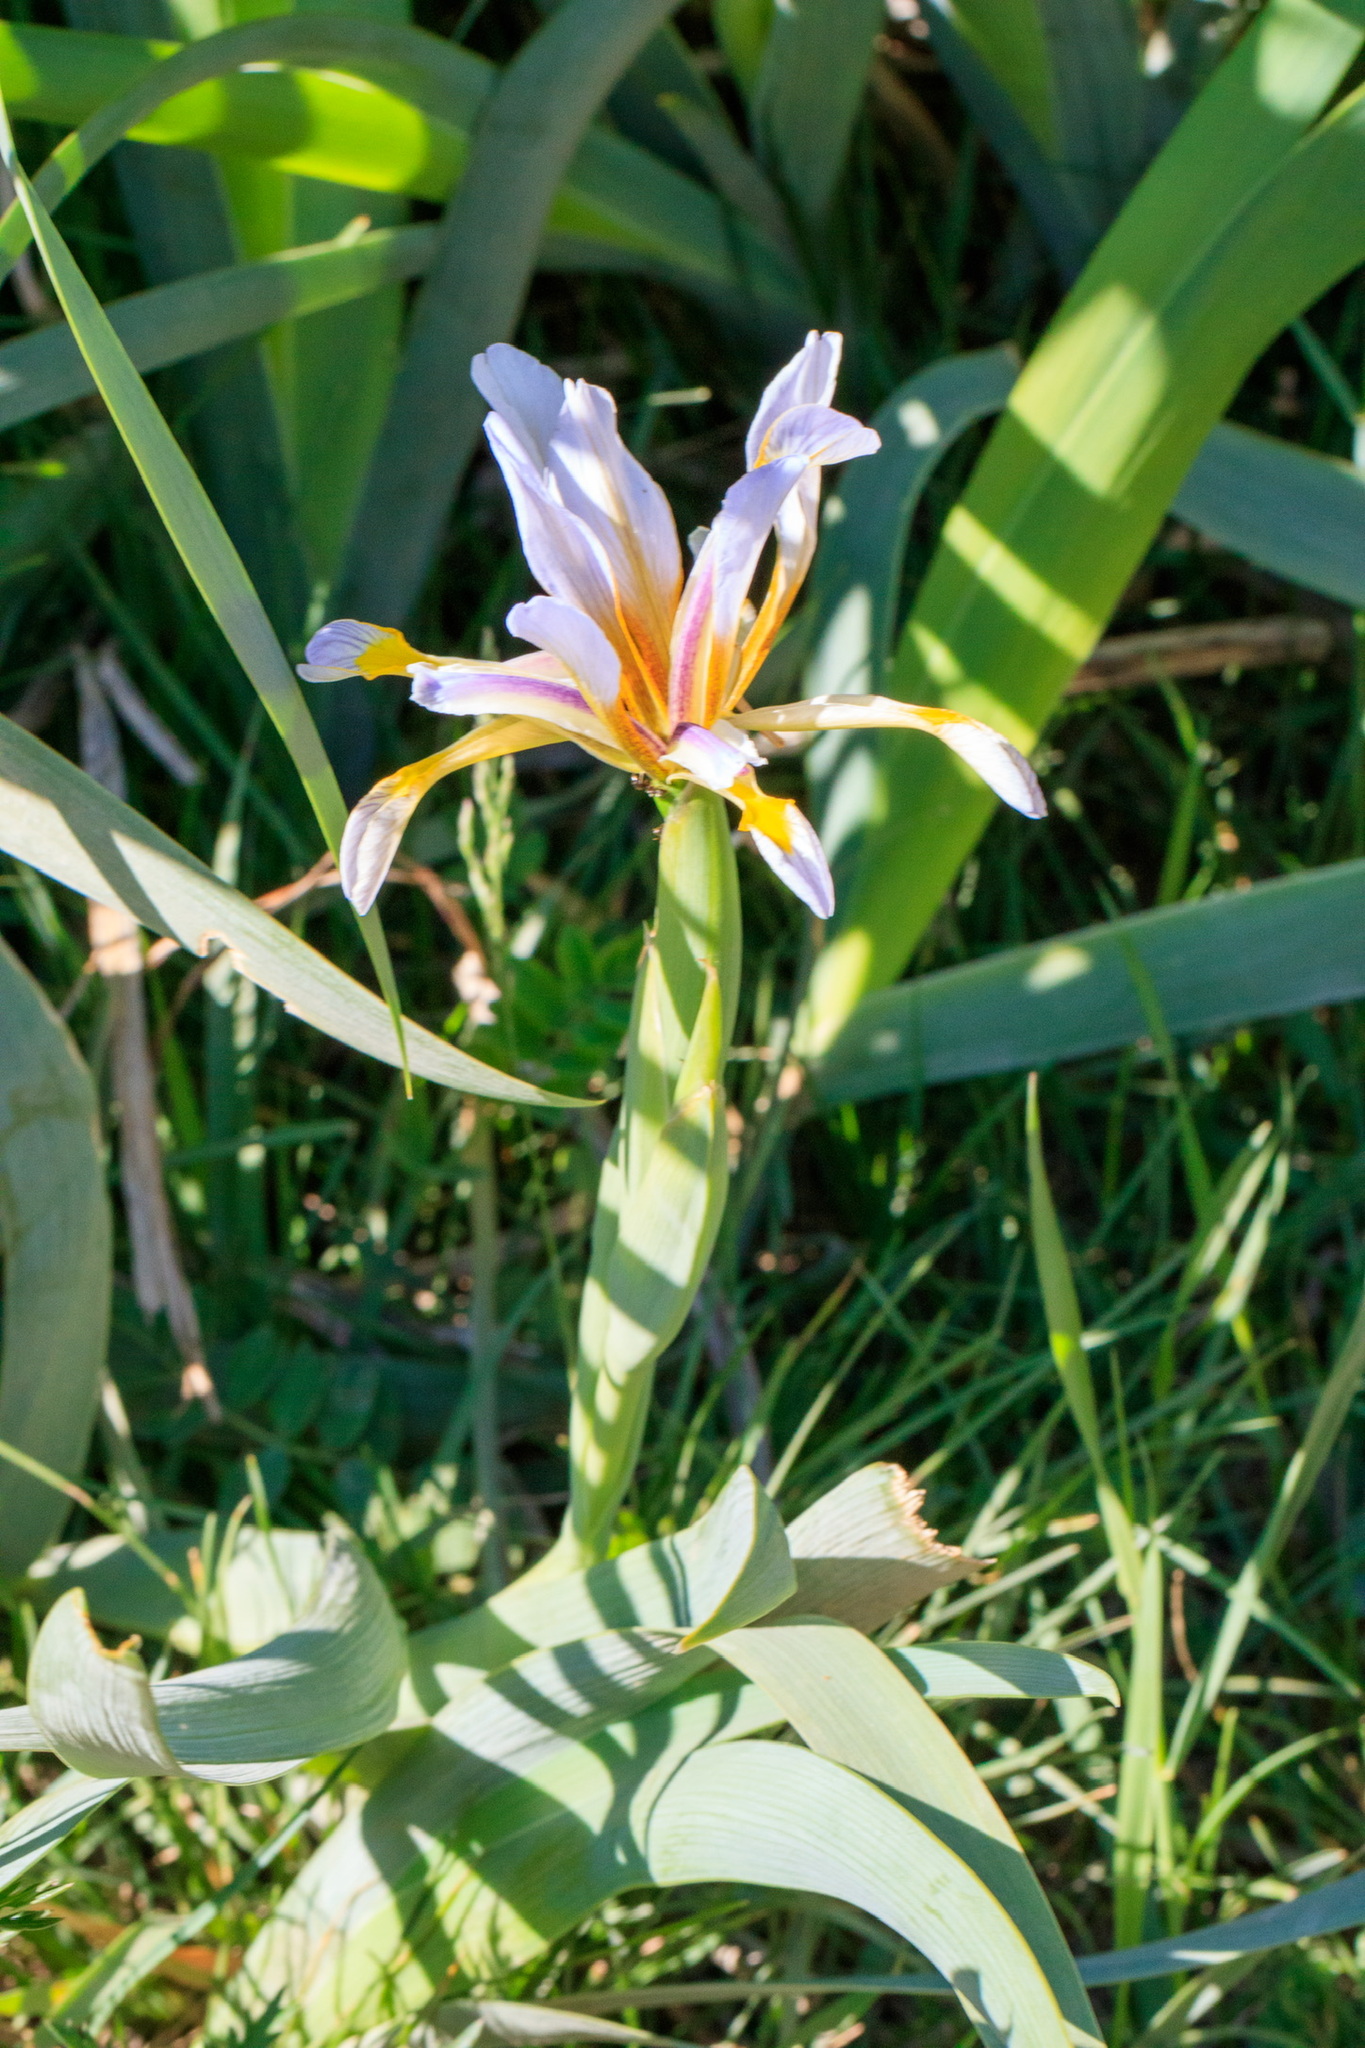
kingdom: Plantae
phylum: Tracheophyta
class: Liliopsida
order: Asparagales
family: Iridaceae
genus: Iris
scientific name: Iris halophila
